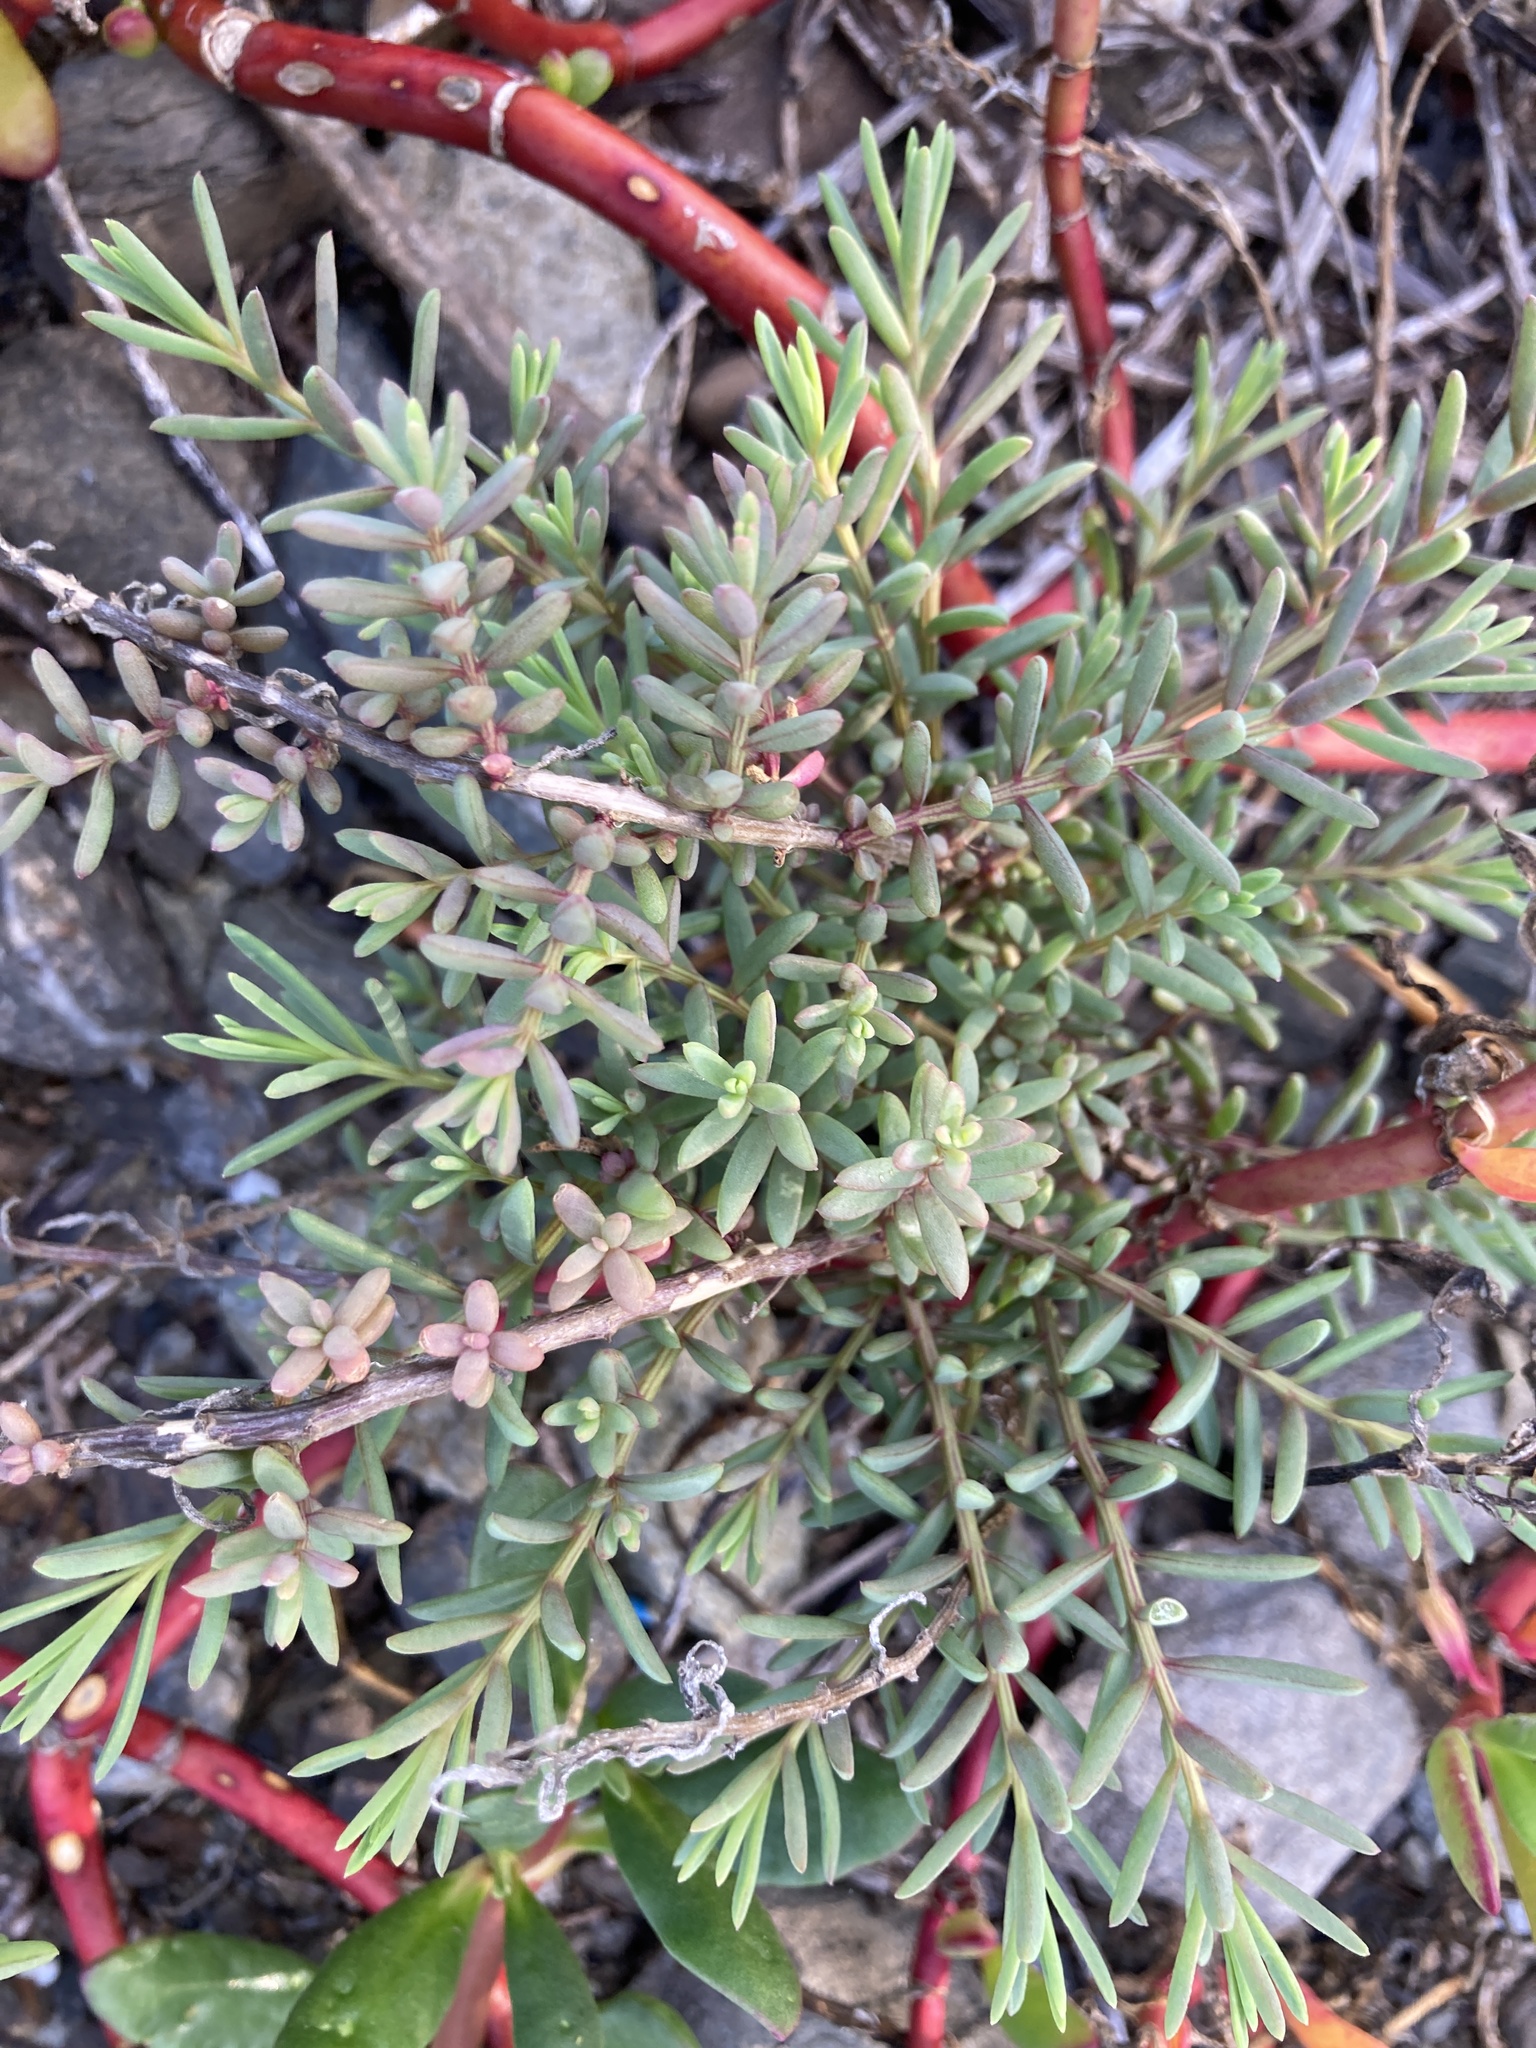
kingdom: Plantae
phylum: Tracheophyta
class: Magnoliopsida
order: Caryophyllales
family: Amaranthaceae
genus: Suaeda
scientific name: Suaeda maritima
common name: Annual sea-blite
